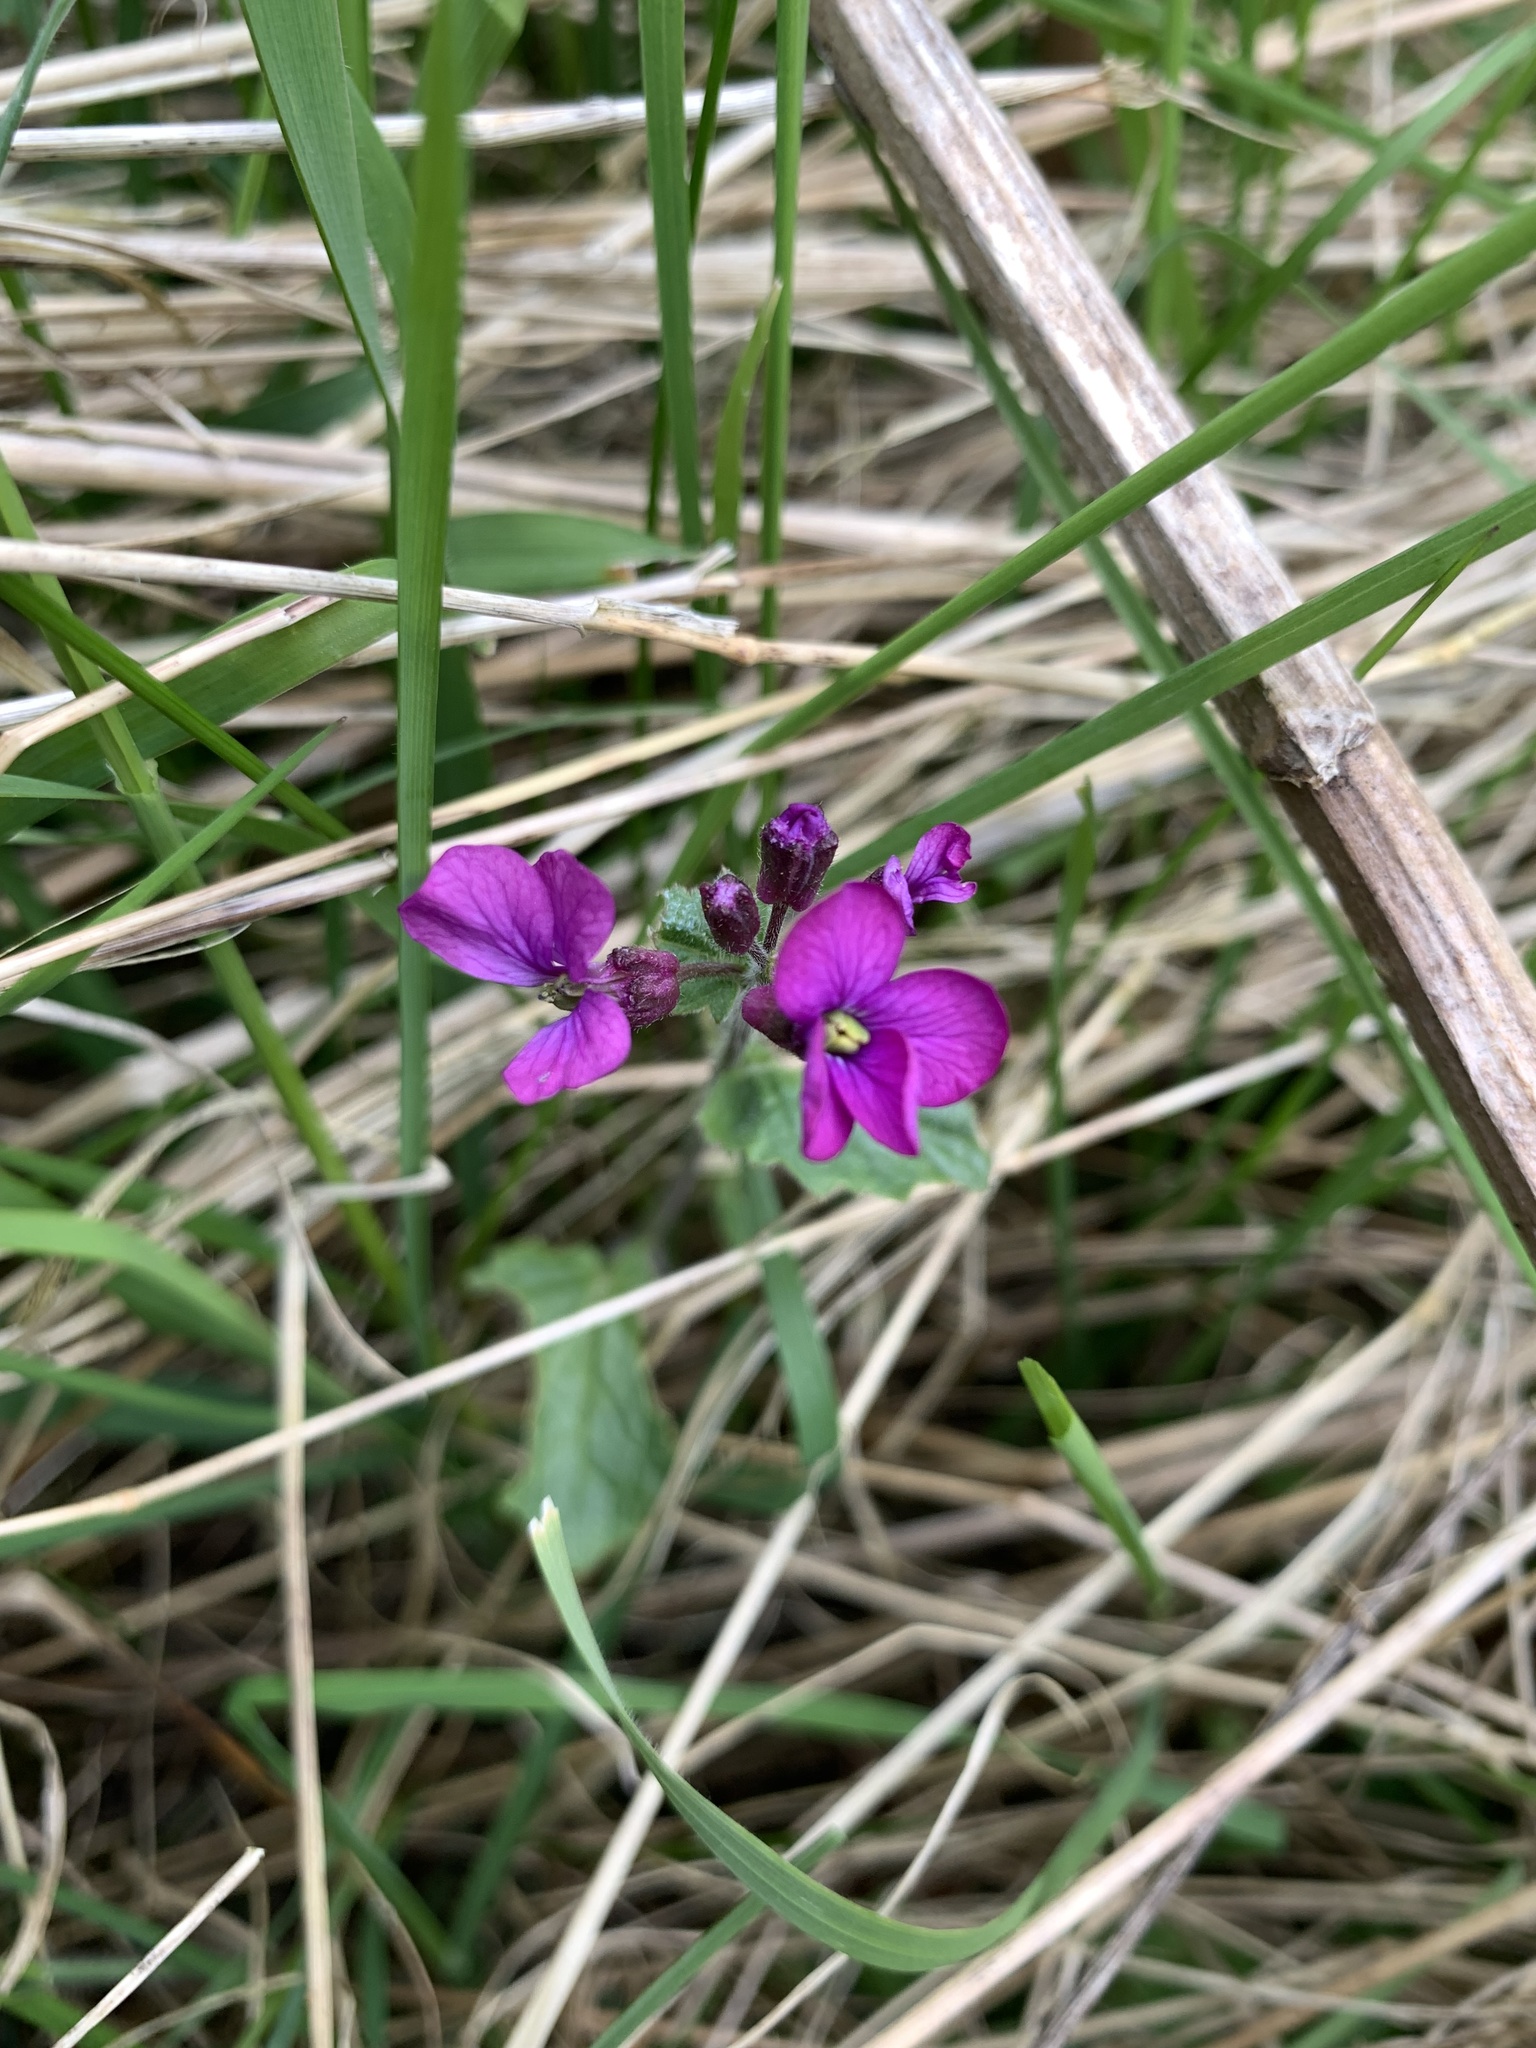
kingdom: Plantae
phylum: Tracheophyta
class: Magnoliopsida
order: Brassicales
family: Brassicaceae
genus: Lunaria
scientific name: Lunaria annua
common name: Honesty
